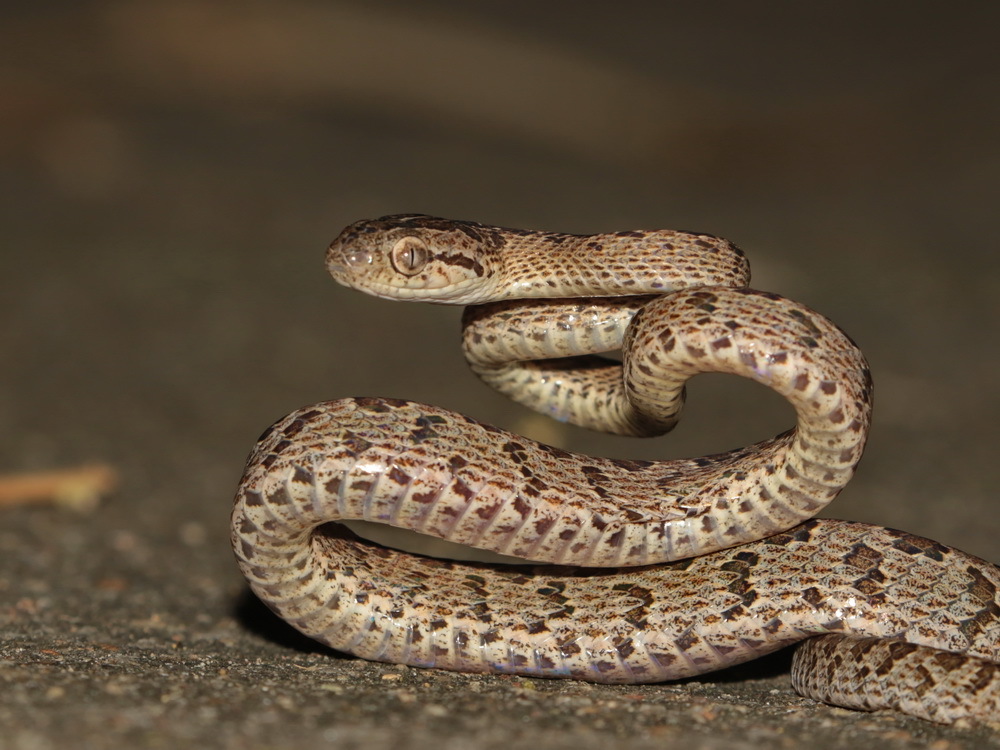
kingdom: Animalia
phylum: Chordata
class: Squamata
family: Colubridae
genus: Boiga
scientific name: Boiga multomaculata
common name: Many-spotted cat snake
